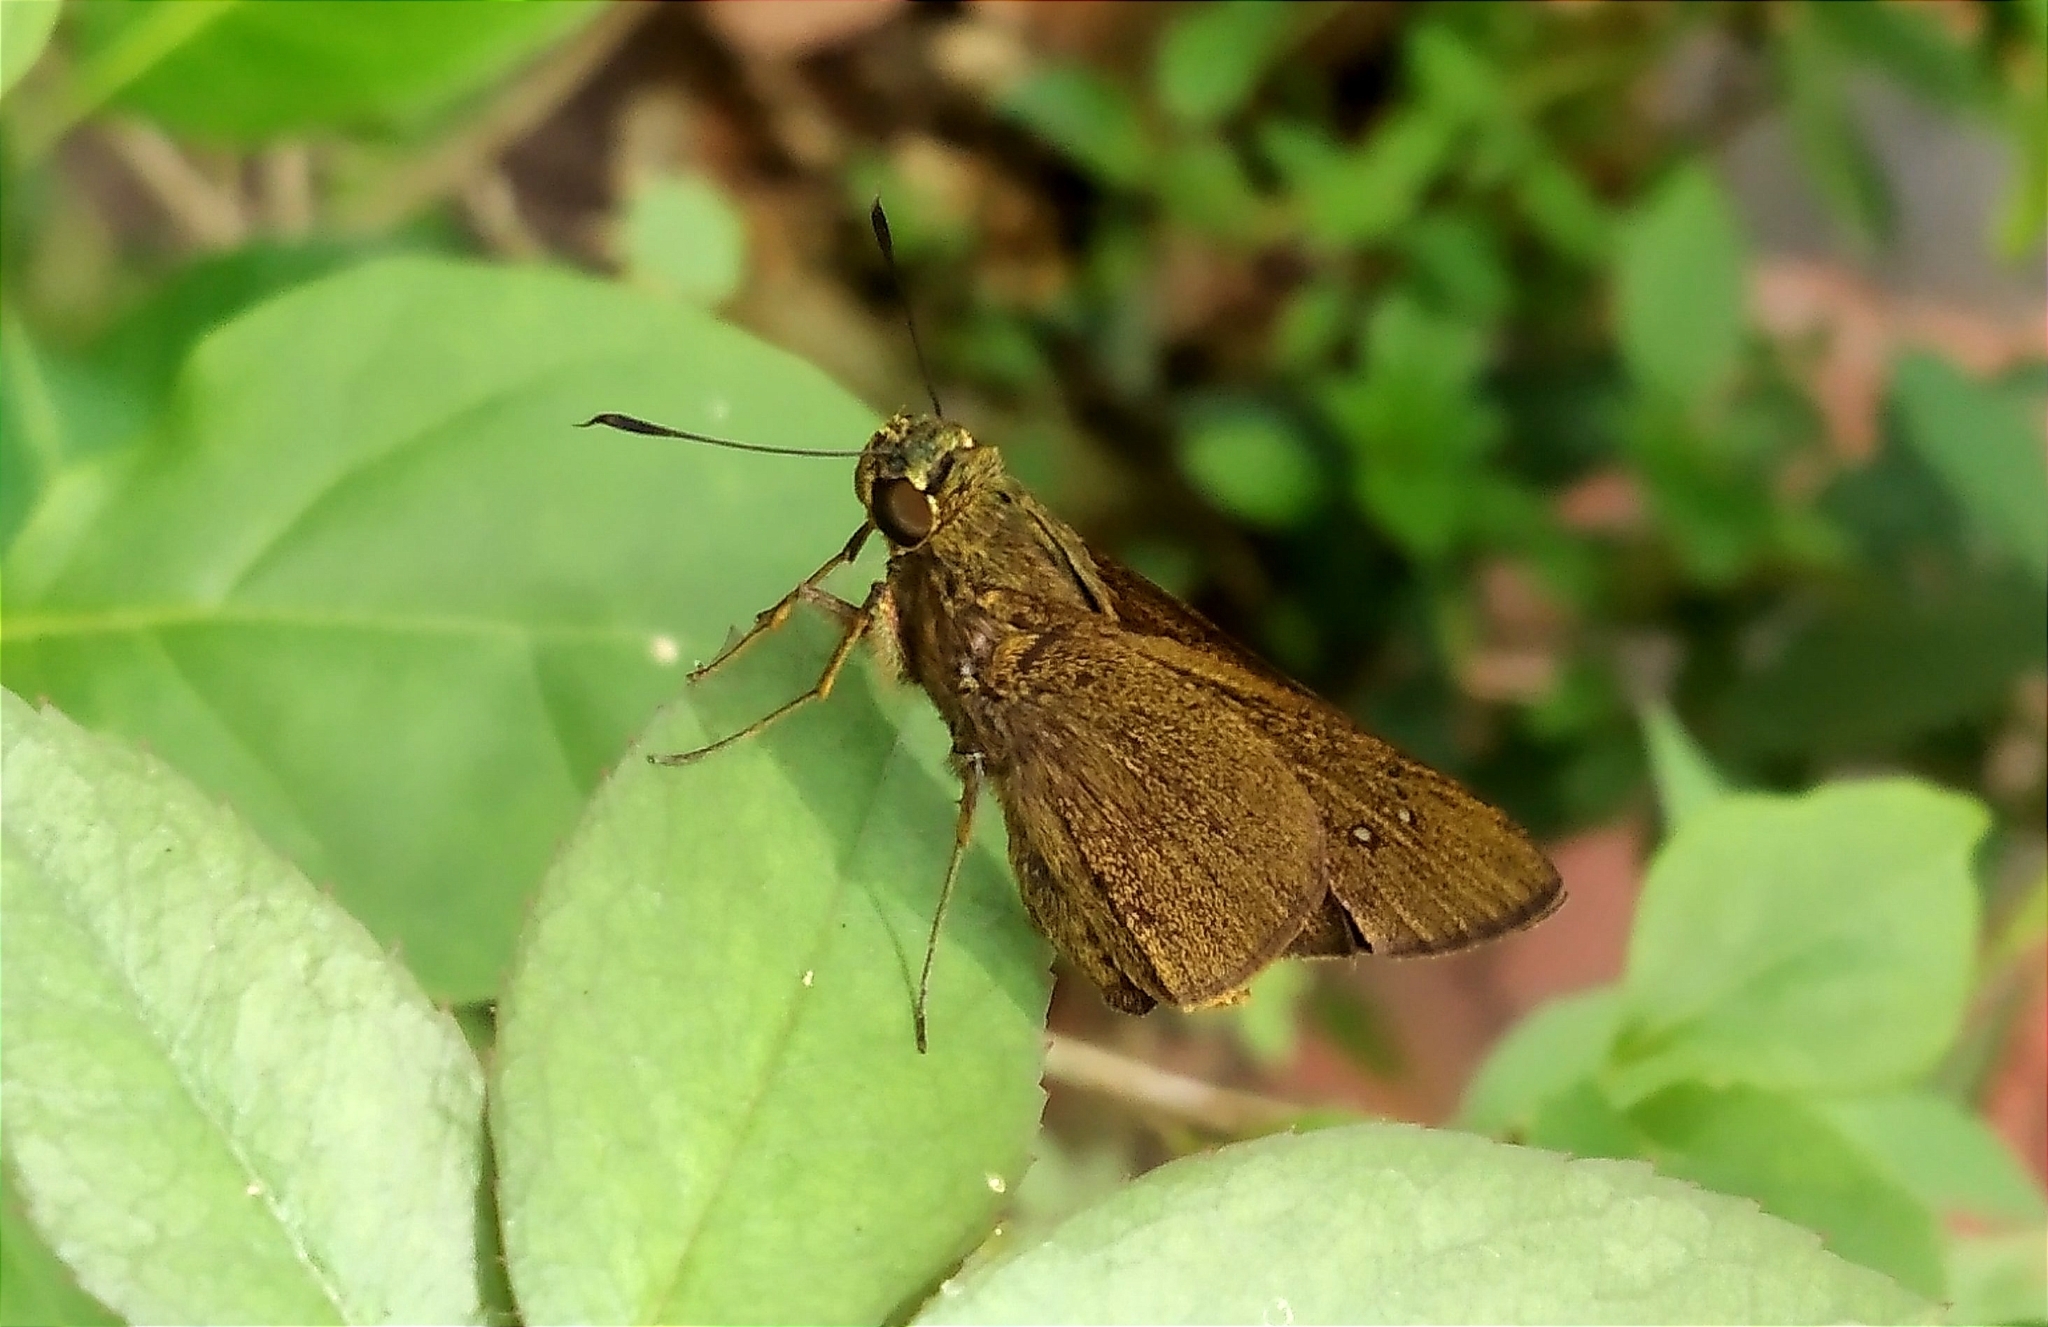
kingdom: Animalia
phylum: Arthropoda
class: Insecta
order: Lepidoptera
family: Hesperiidae
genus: Caltoris
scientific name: Caltoris philippina
